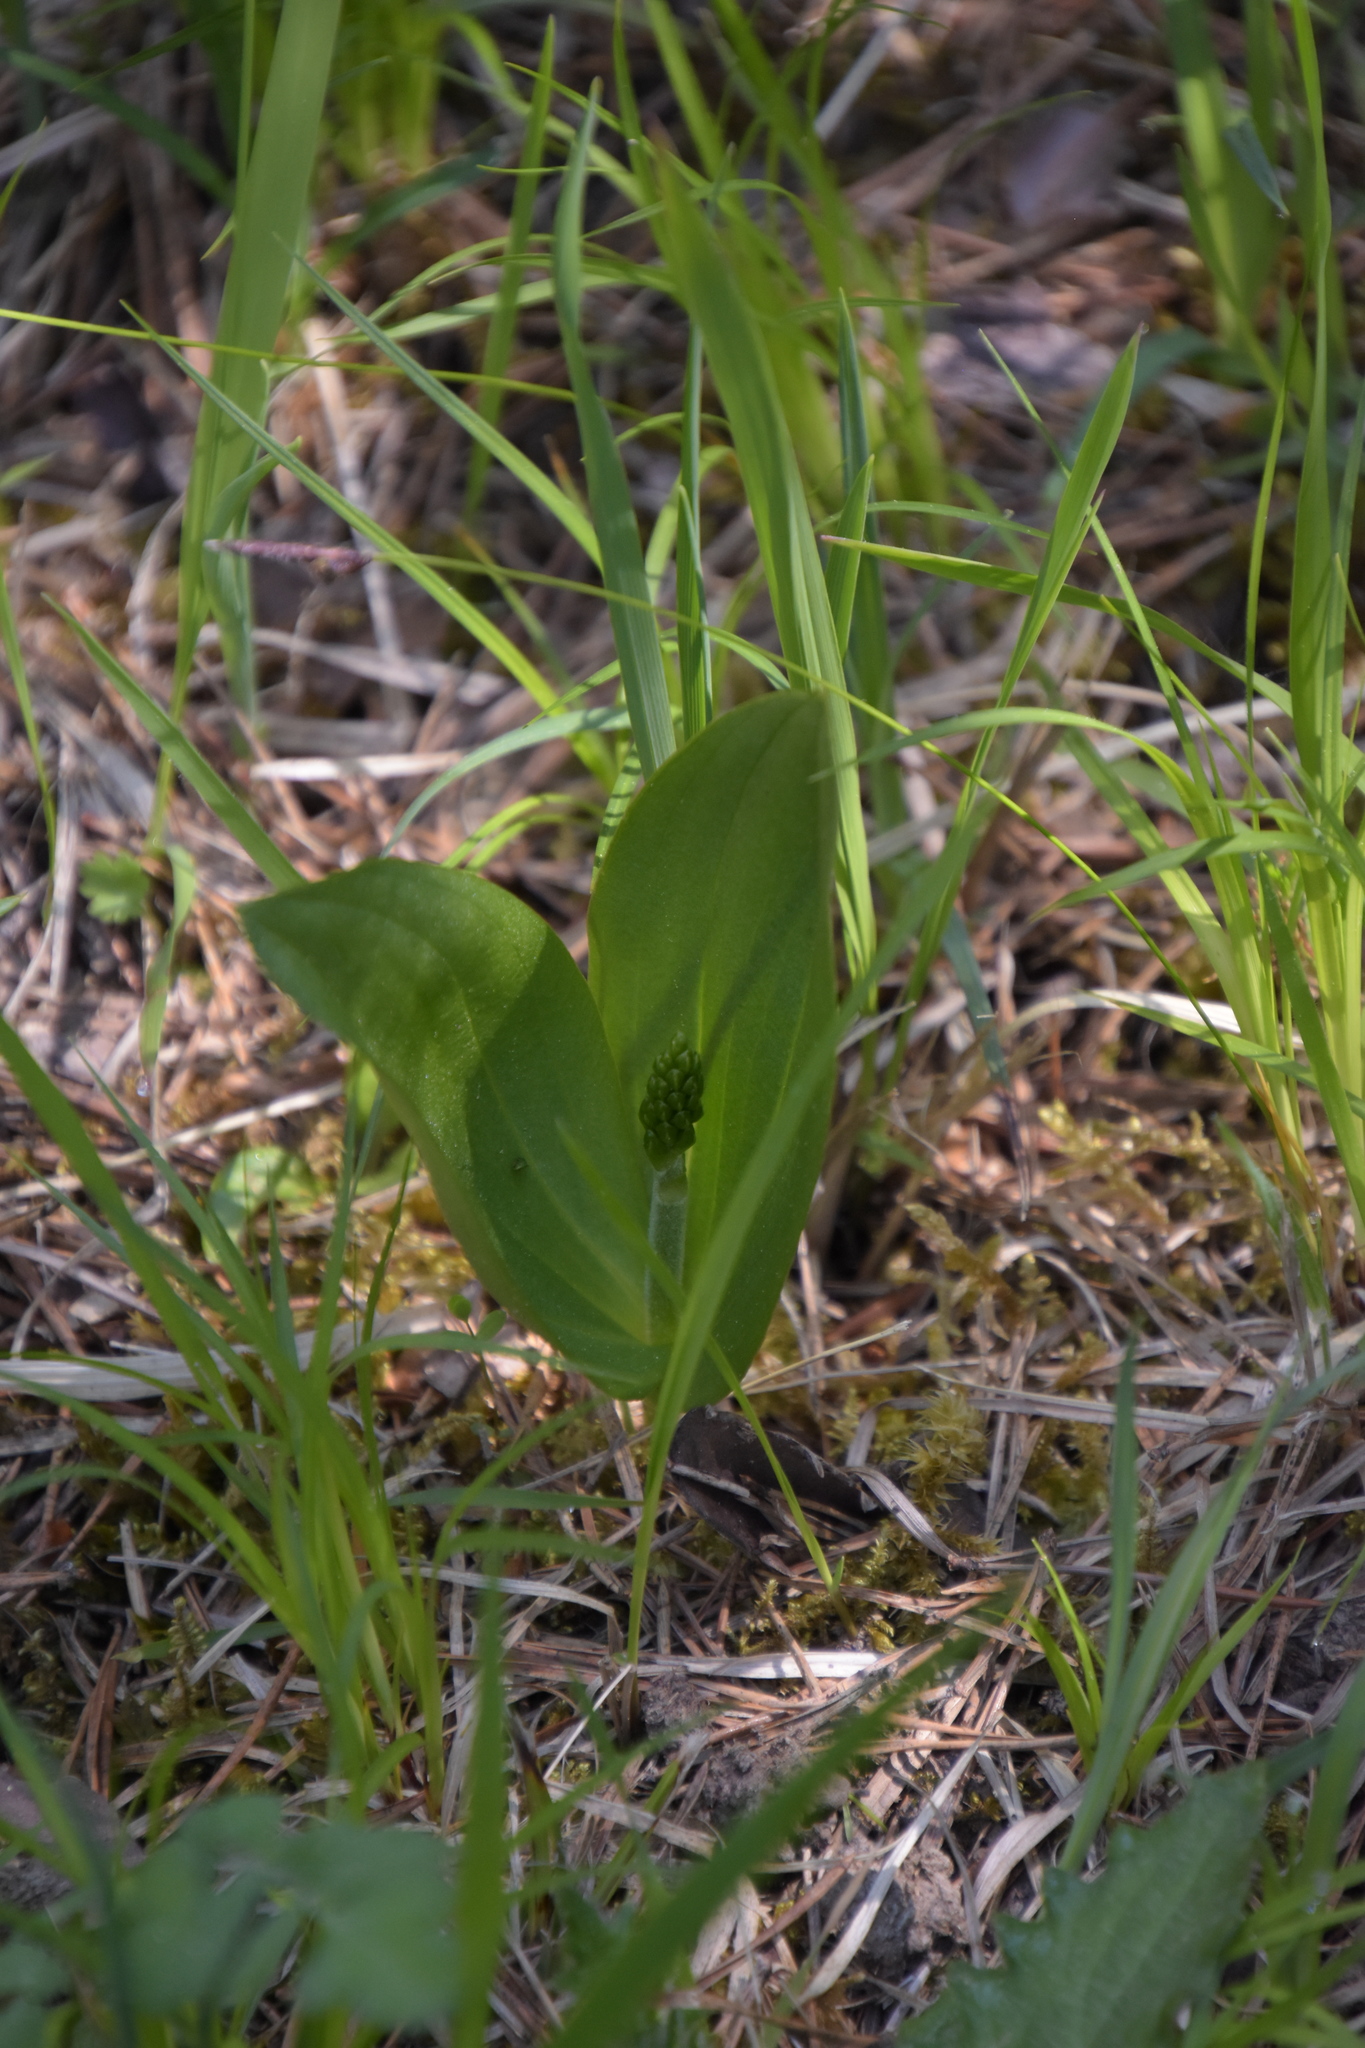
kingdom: Plantae
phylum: Tracheophyta
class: Liliopsida
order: Asparagales
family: Orchidaceae
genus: Neottia
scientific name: Neottia ovata
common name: Common twayblade
